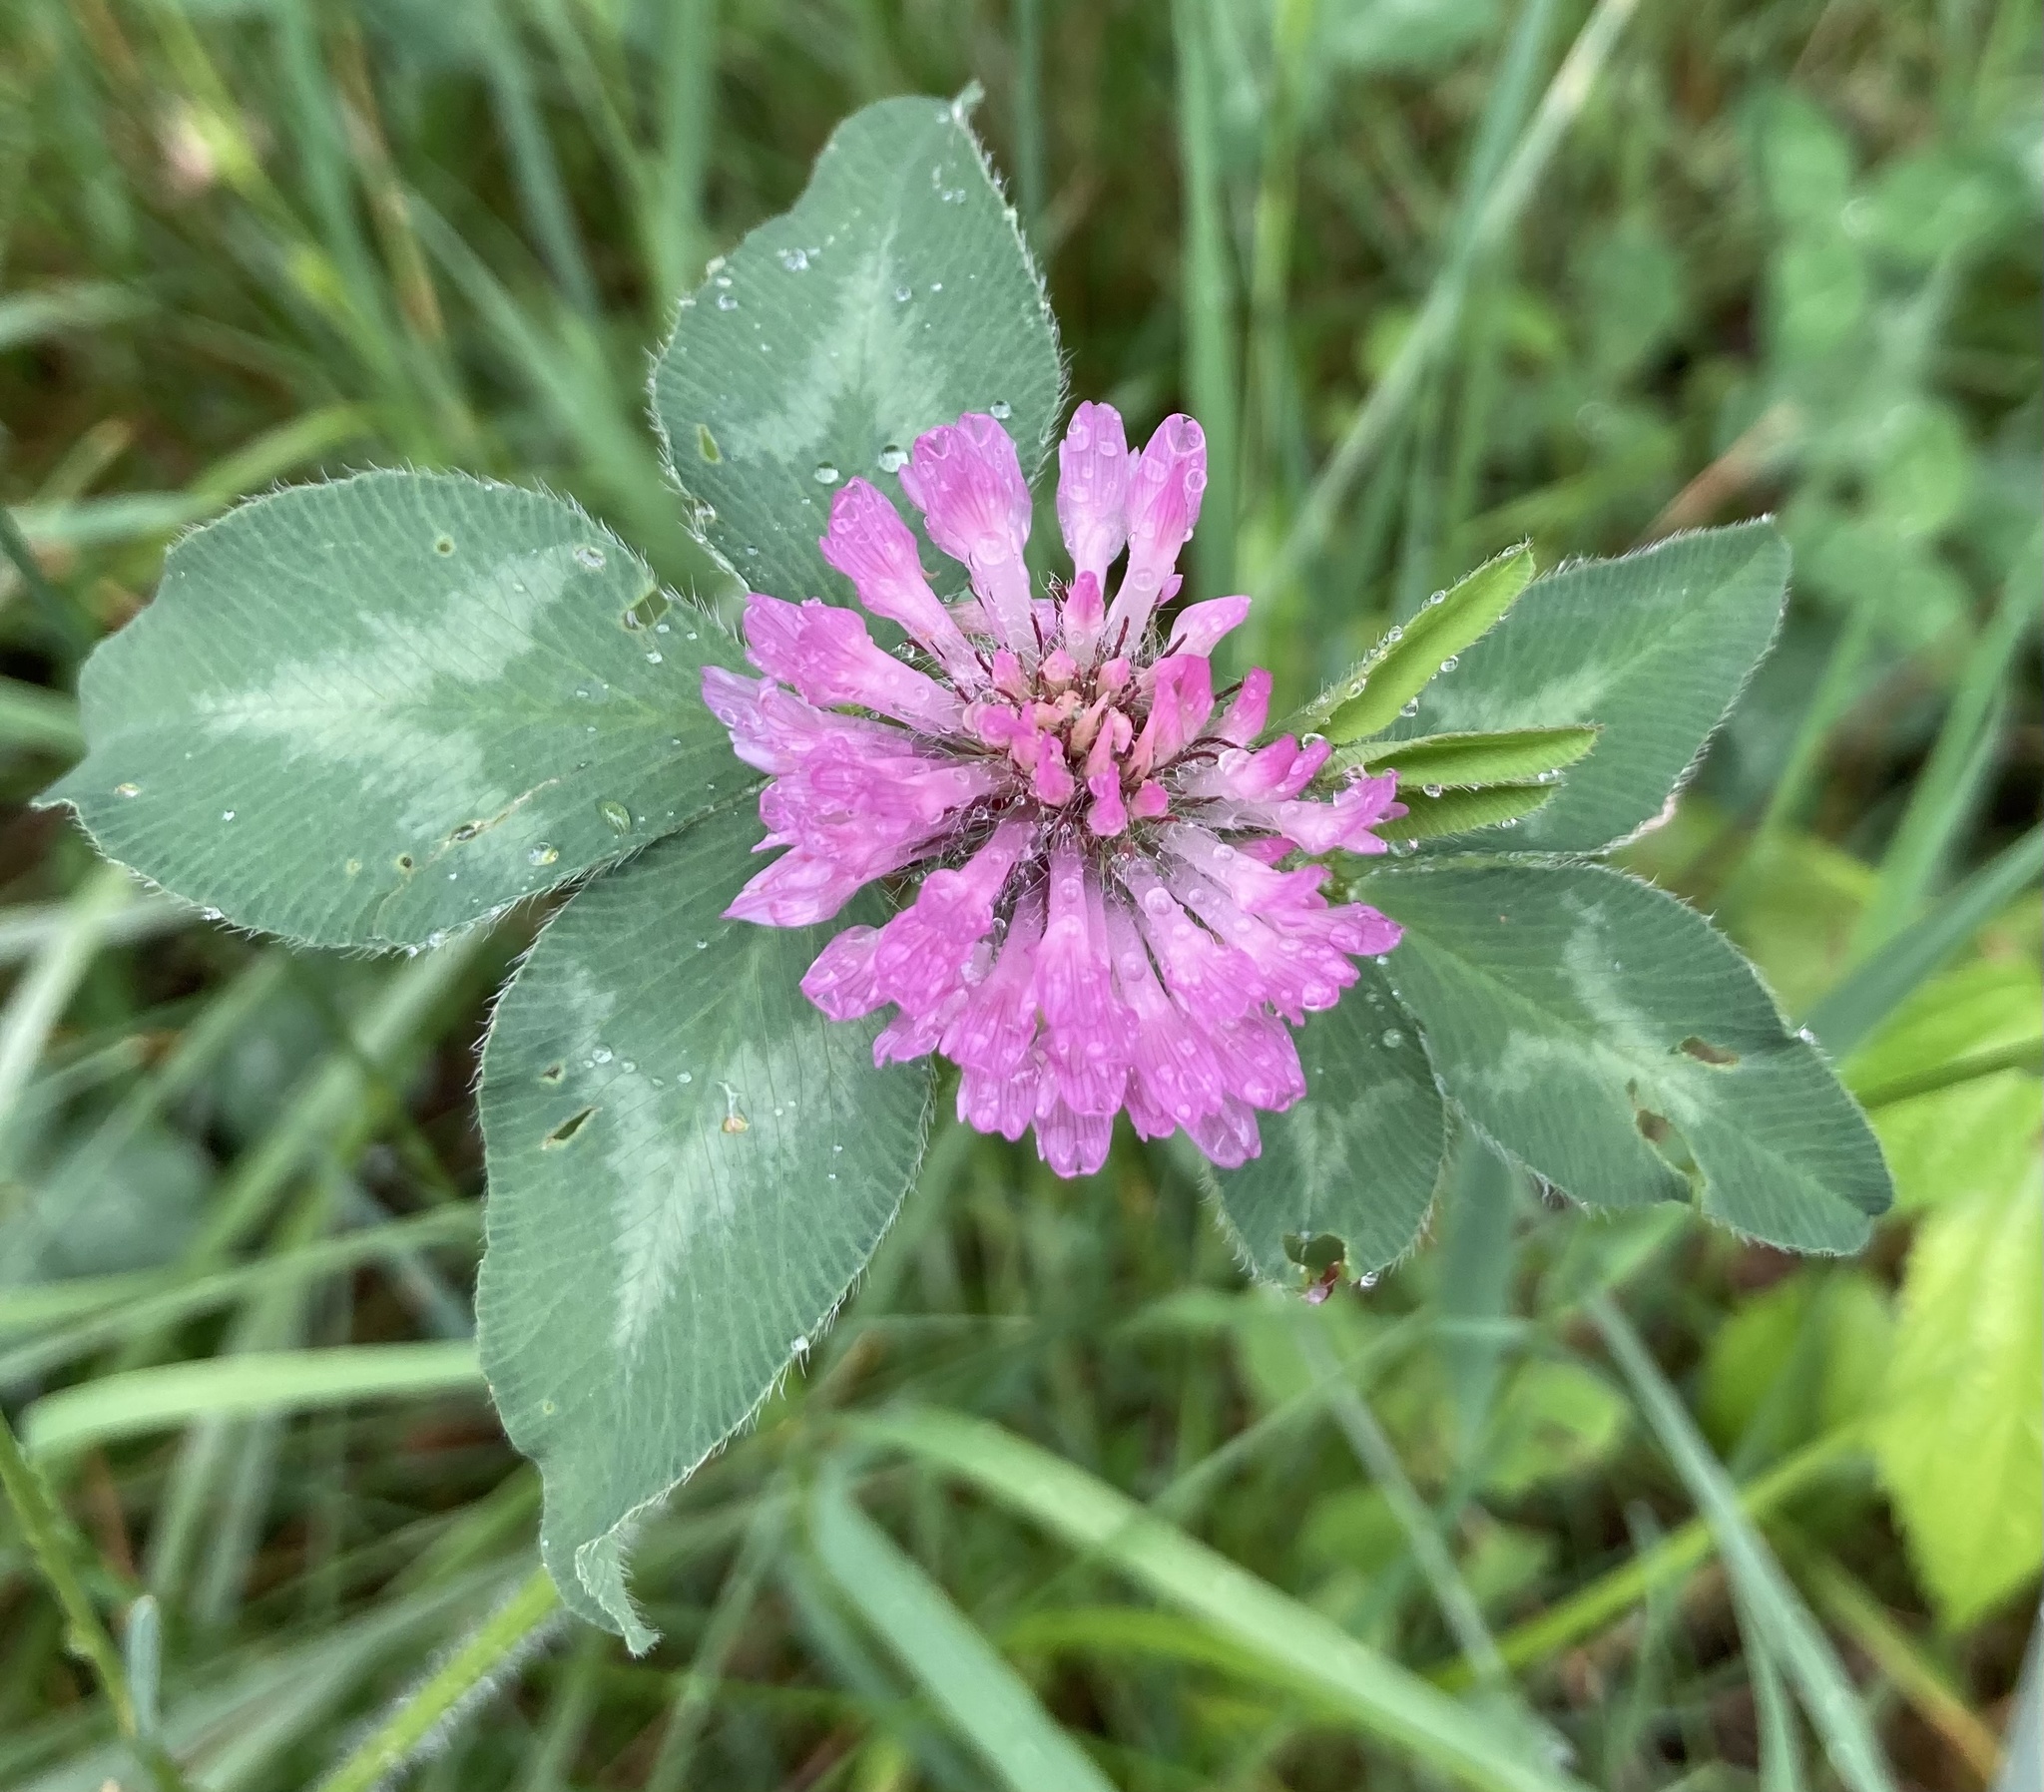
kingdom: Plantae
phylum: Tracheophyta
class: Magnoliopsida
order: Fabales
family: Fabaceae
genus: Trifolium
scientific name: Trifolium pratense
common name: Red clover
